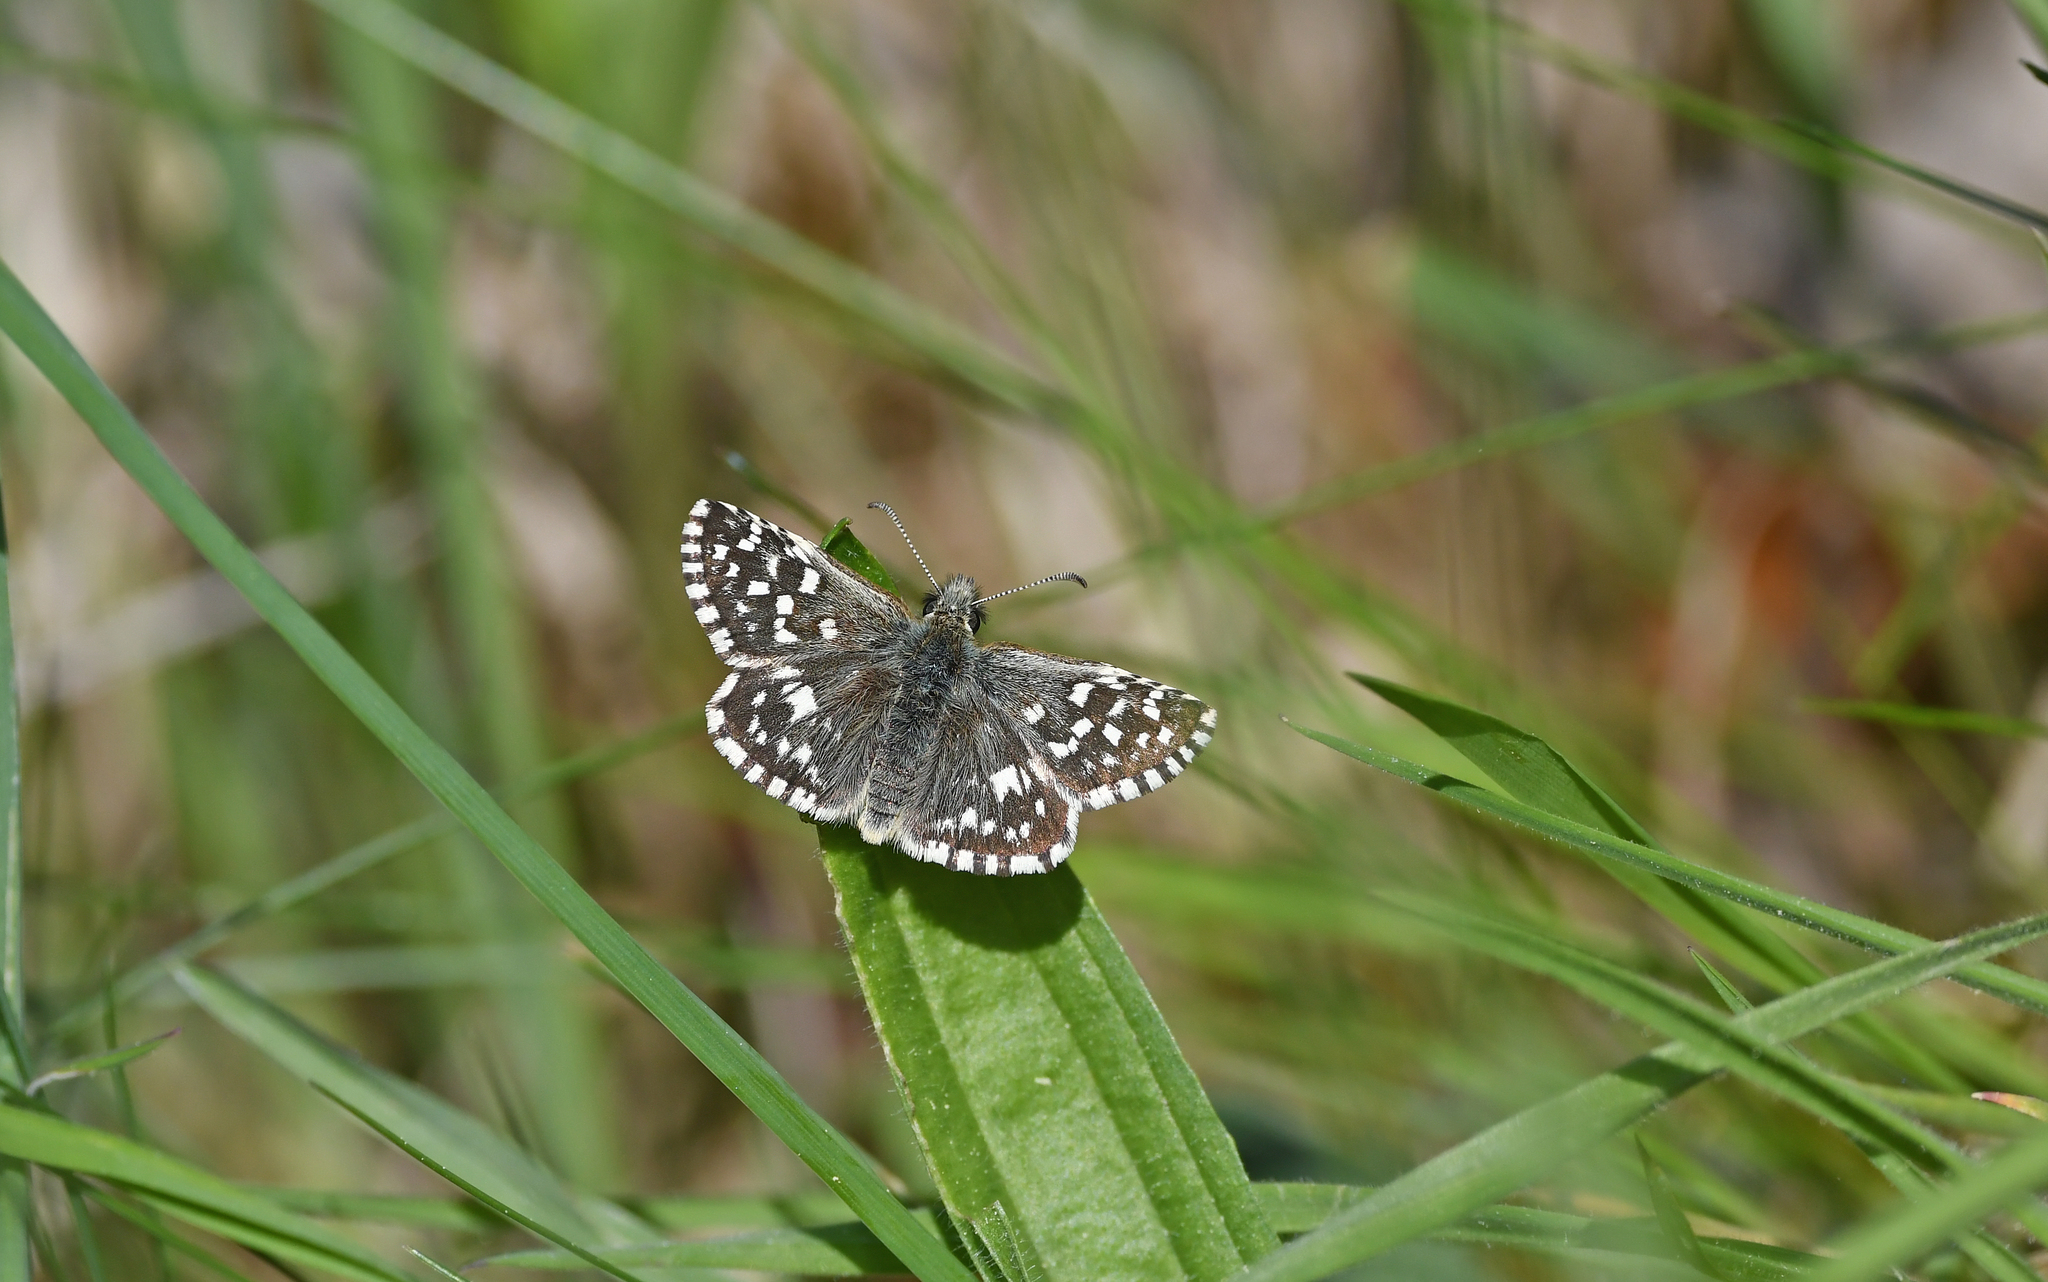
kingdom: Animalia
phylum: Arthropoda
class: Insecta
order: Lepidoptera
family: Hesperiidae
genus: Pyrgus
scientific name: Pyrgus malvae
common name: Grizzled skipper
